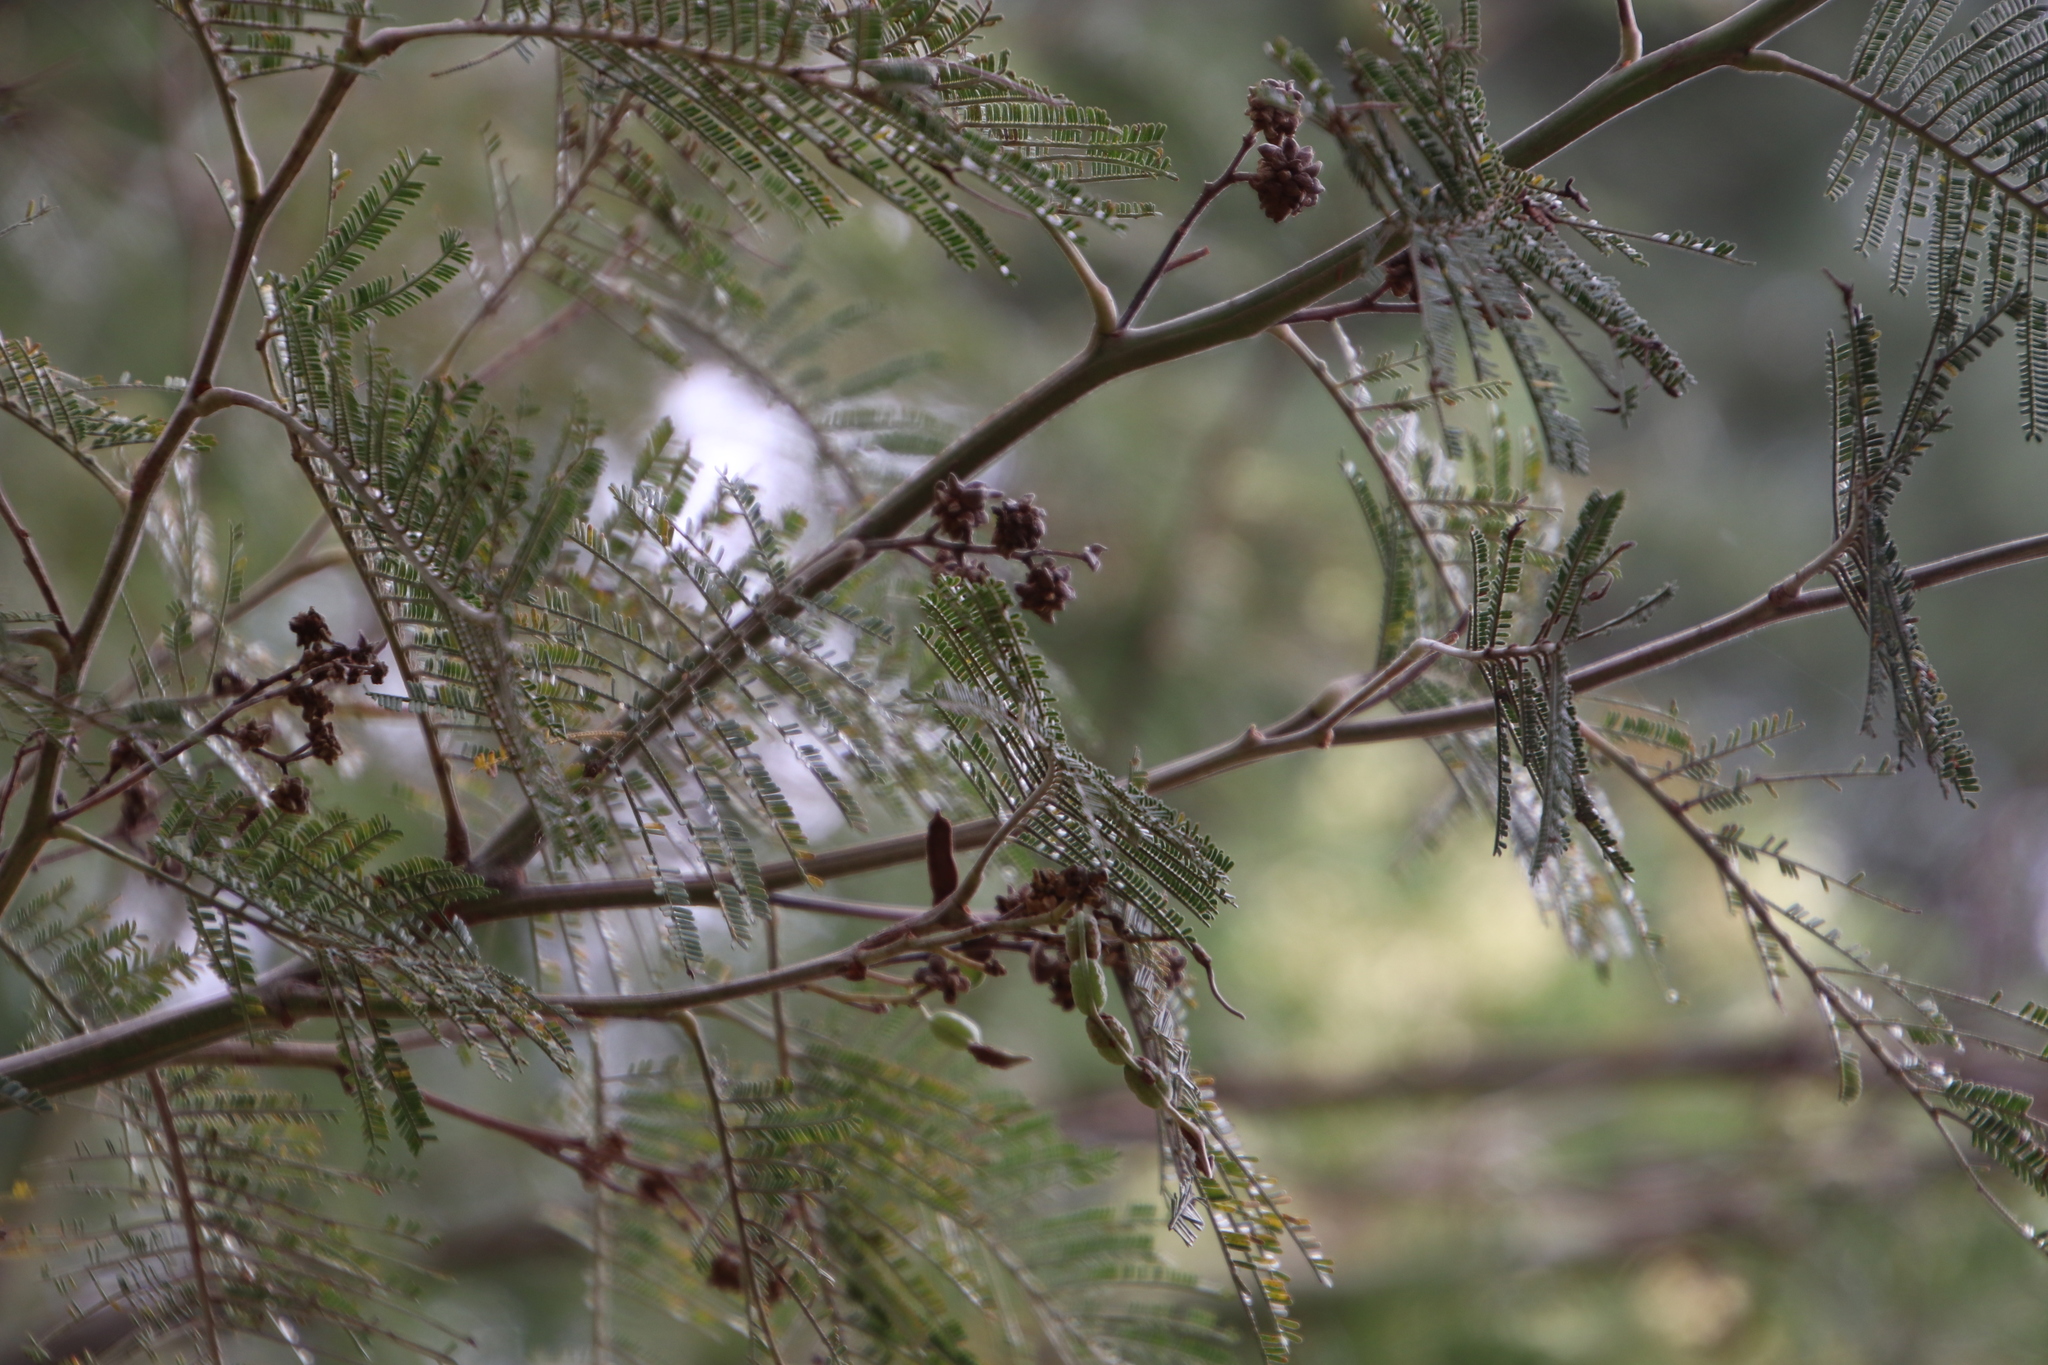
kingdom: Animalia
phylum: Arthropoda
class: Insecta
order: Diptera
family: Cecidomyiidae
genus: Dasineura
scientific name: Dasineura rubiformis
